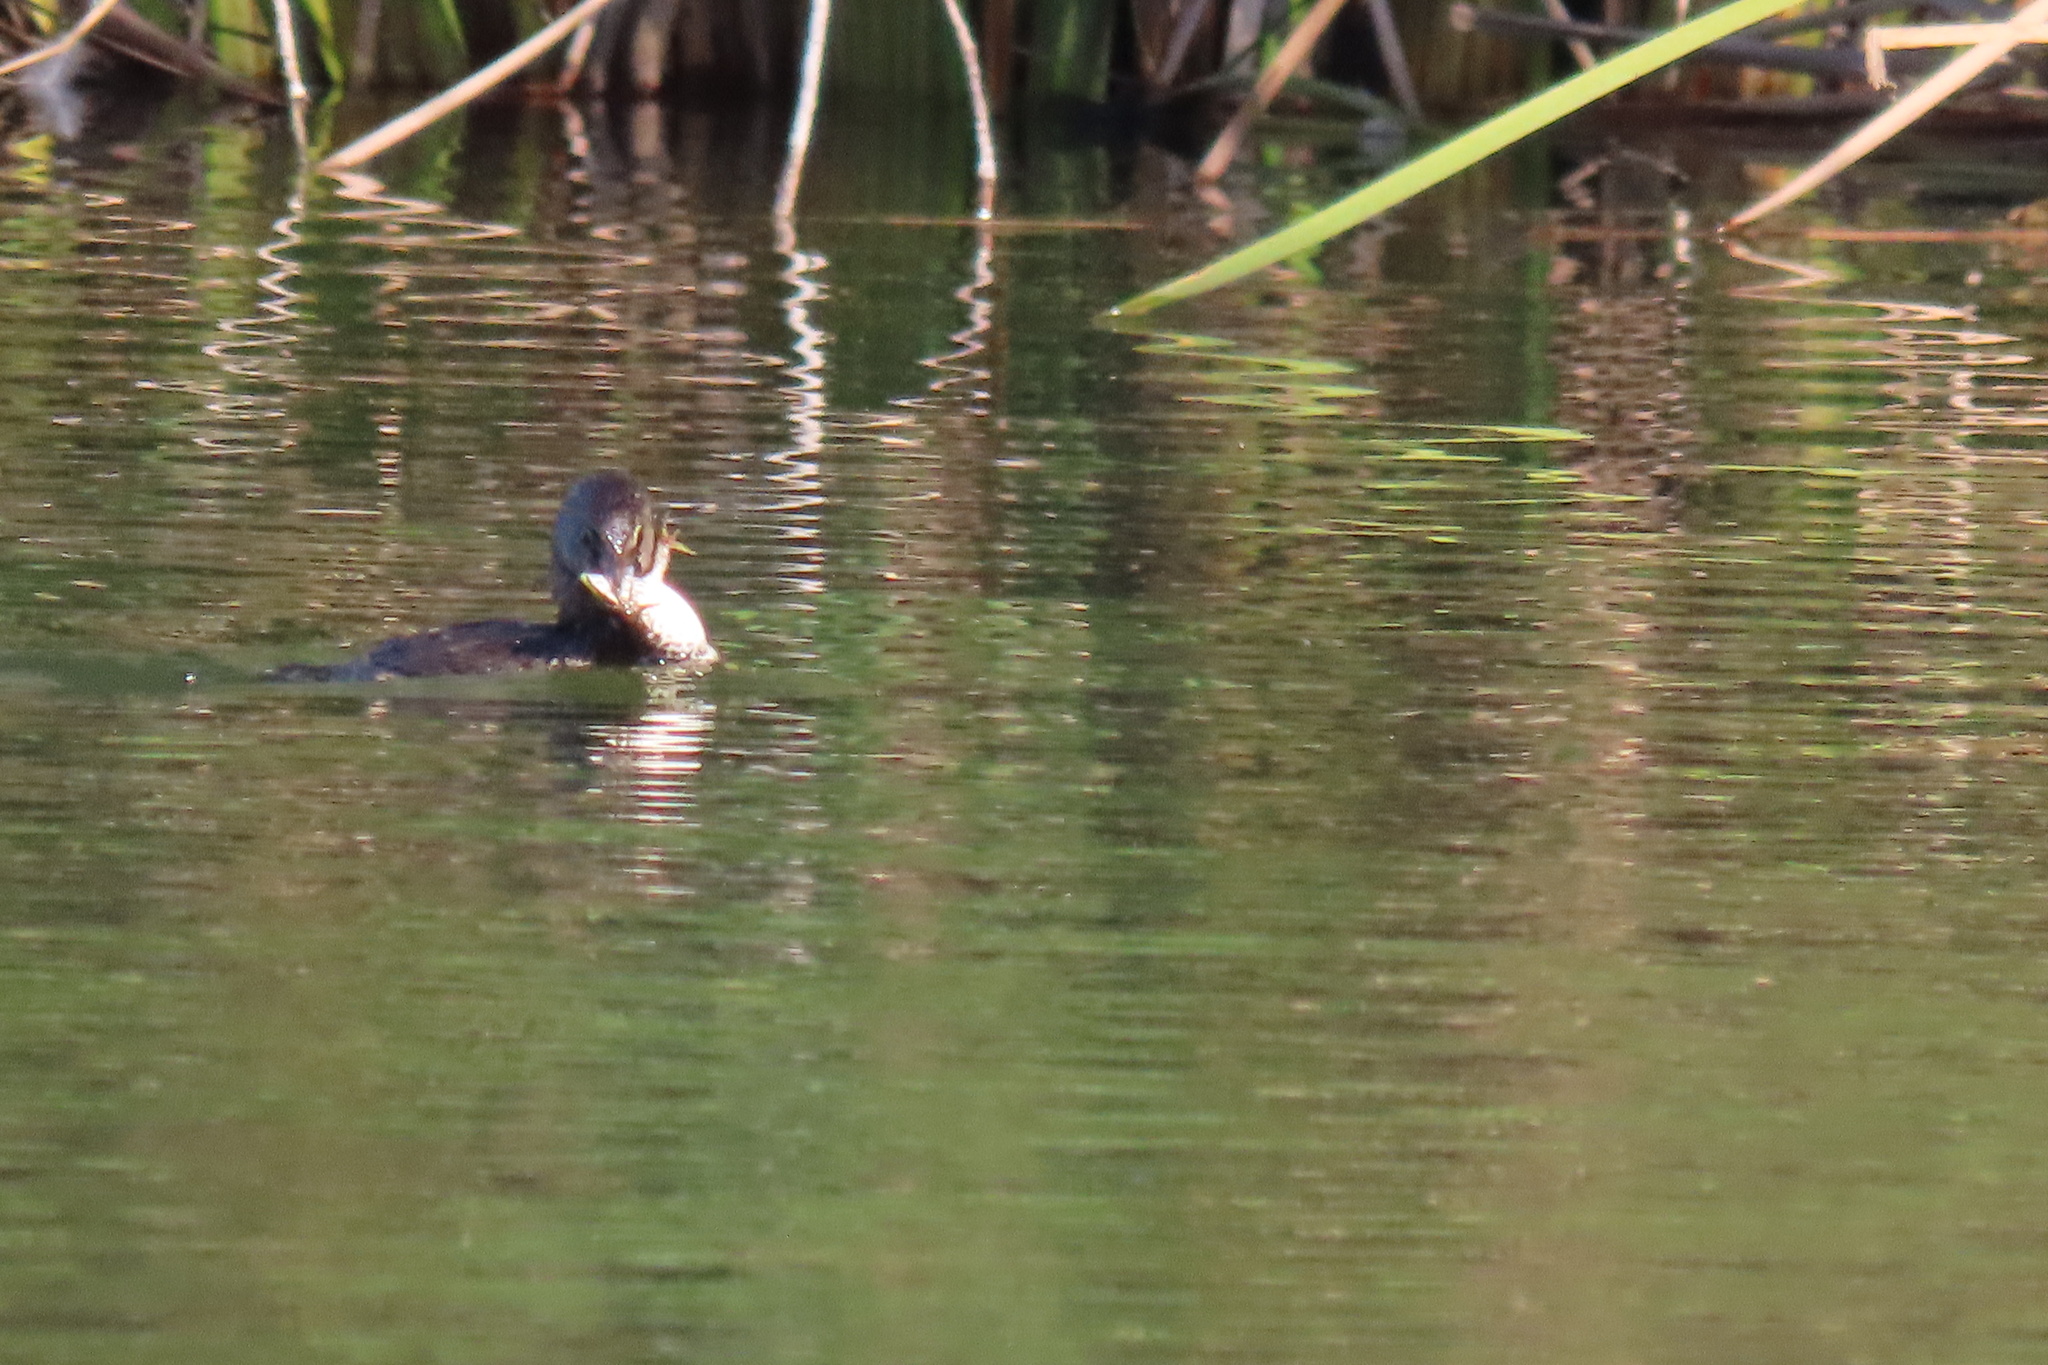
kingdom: Animalia
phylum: Chordata
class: Aves
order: Podicipediformes
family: Podicipedidae
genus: Podilymbus
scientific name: Podilymbus podiceps
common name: Pied-billed grebe
